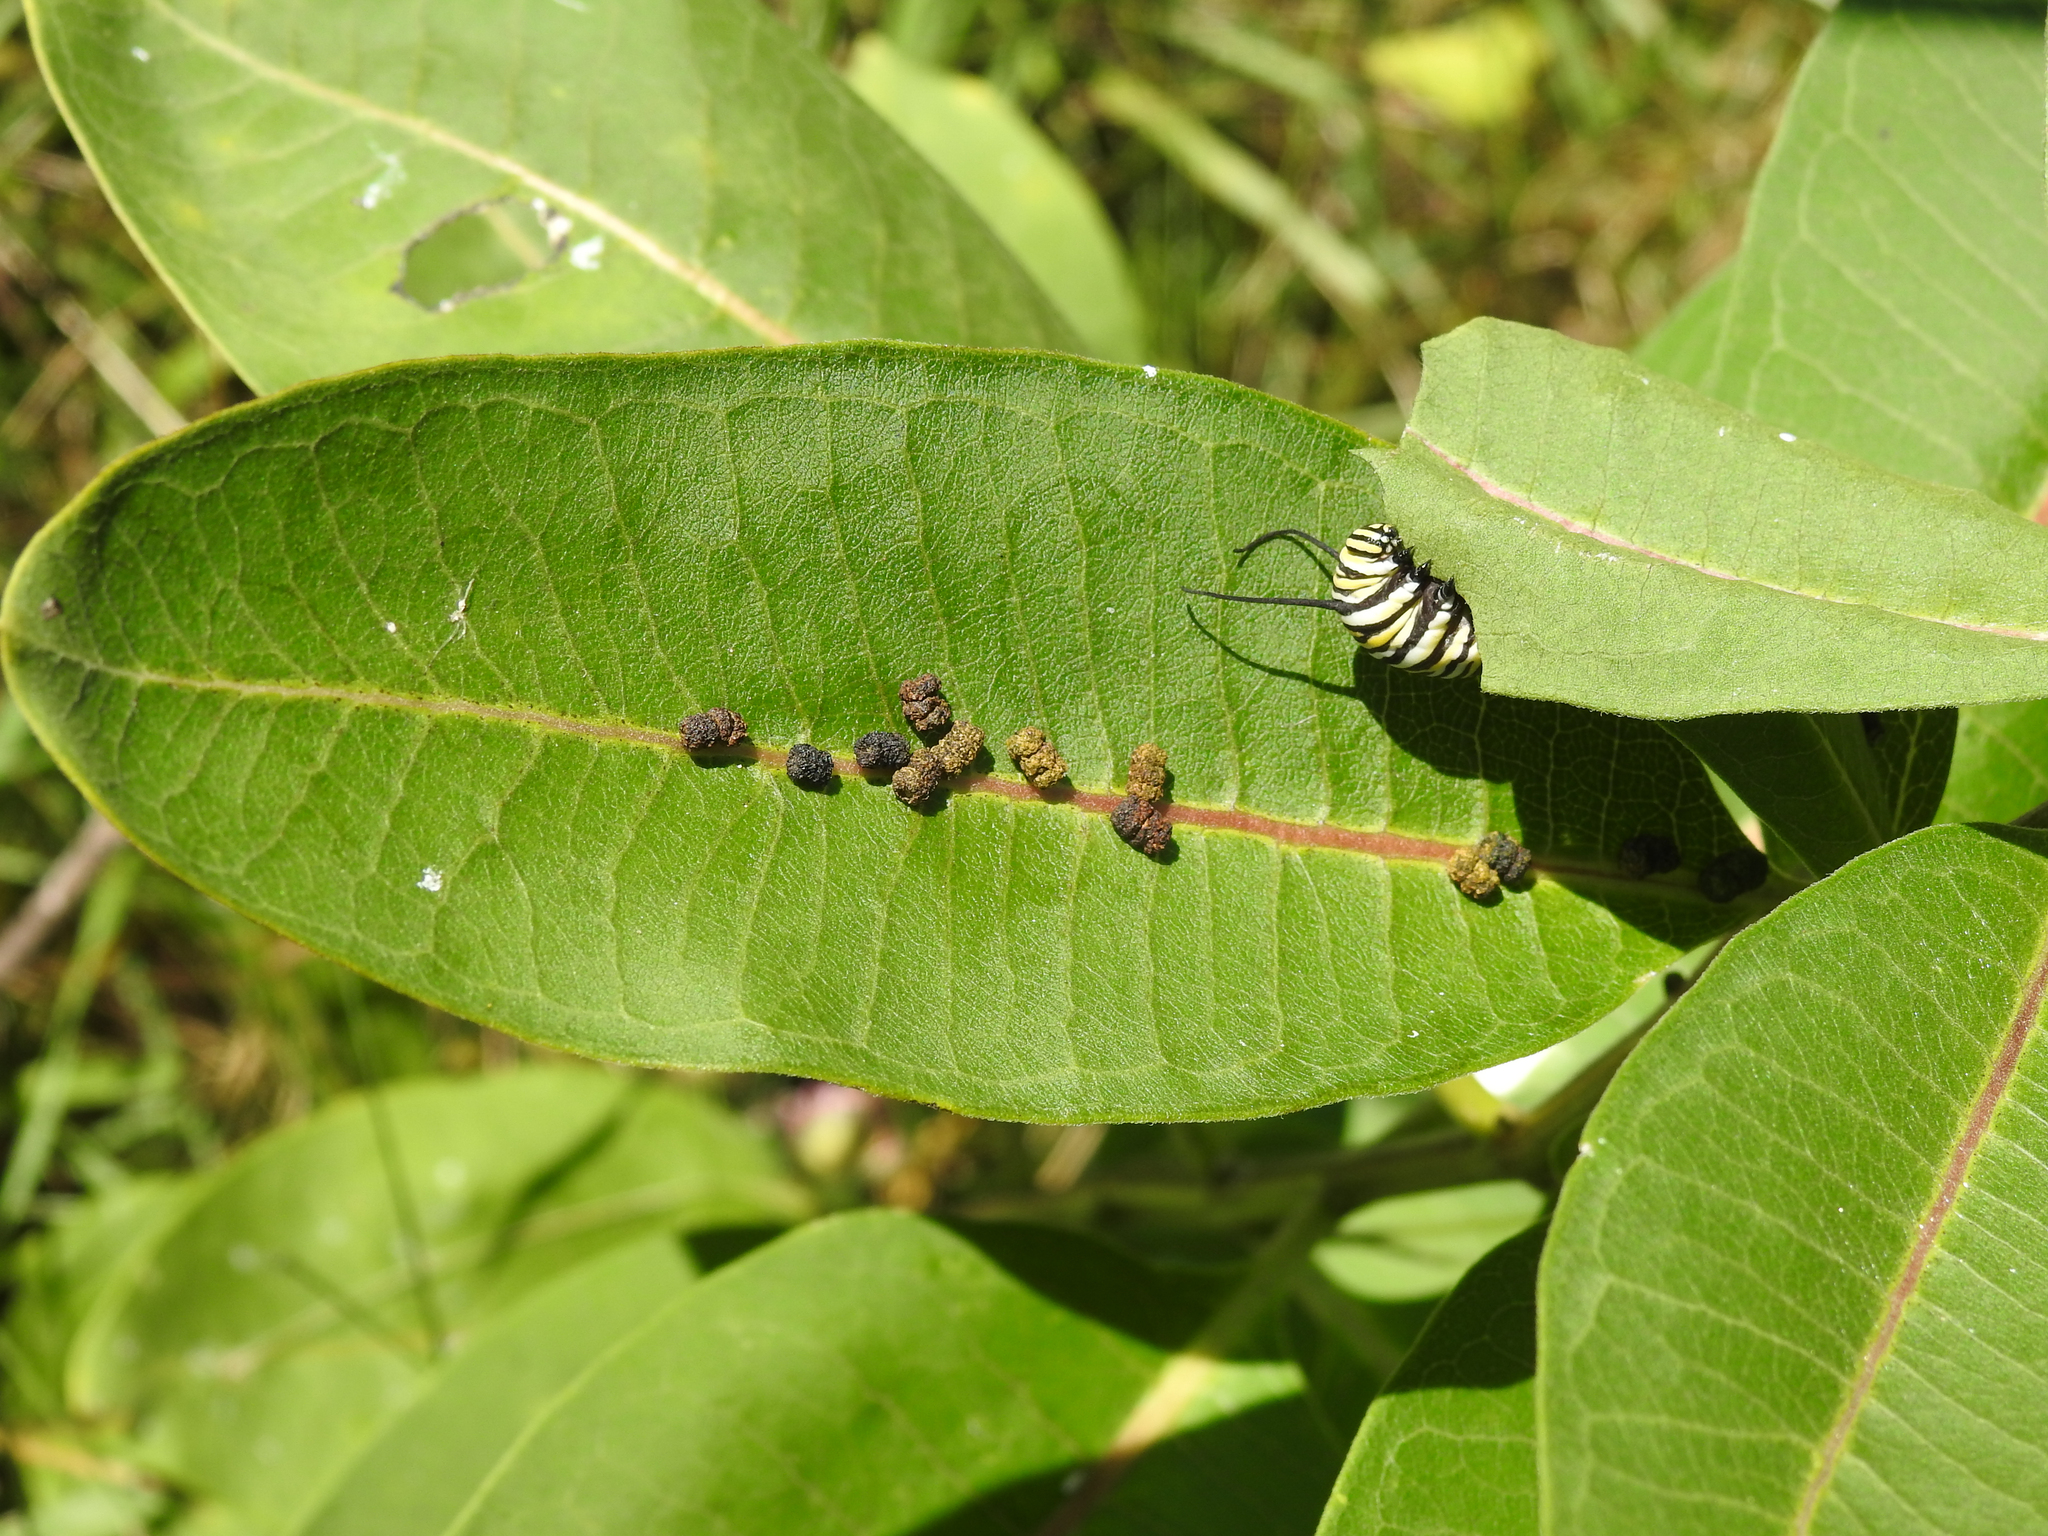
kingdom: Animalia
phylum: Arthropoda
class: Insecta
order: Lepidoptera
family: Nymphalidae
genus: Danaus
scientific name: Danaus plexippus
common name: Monarch
